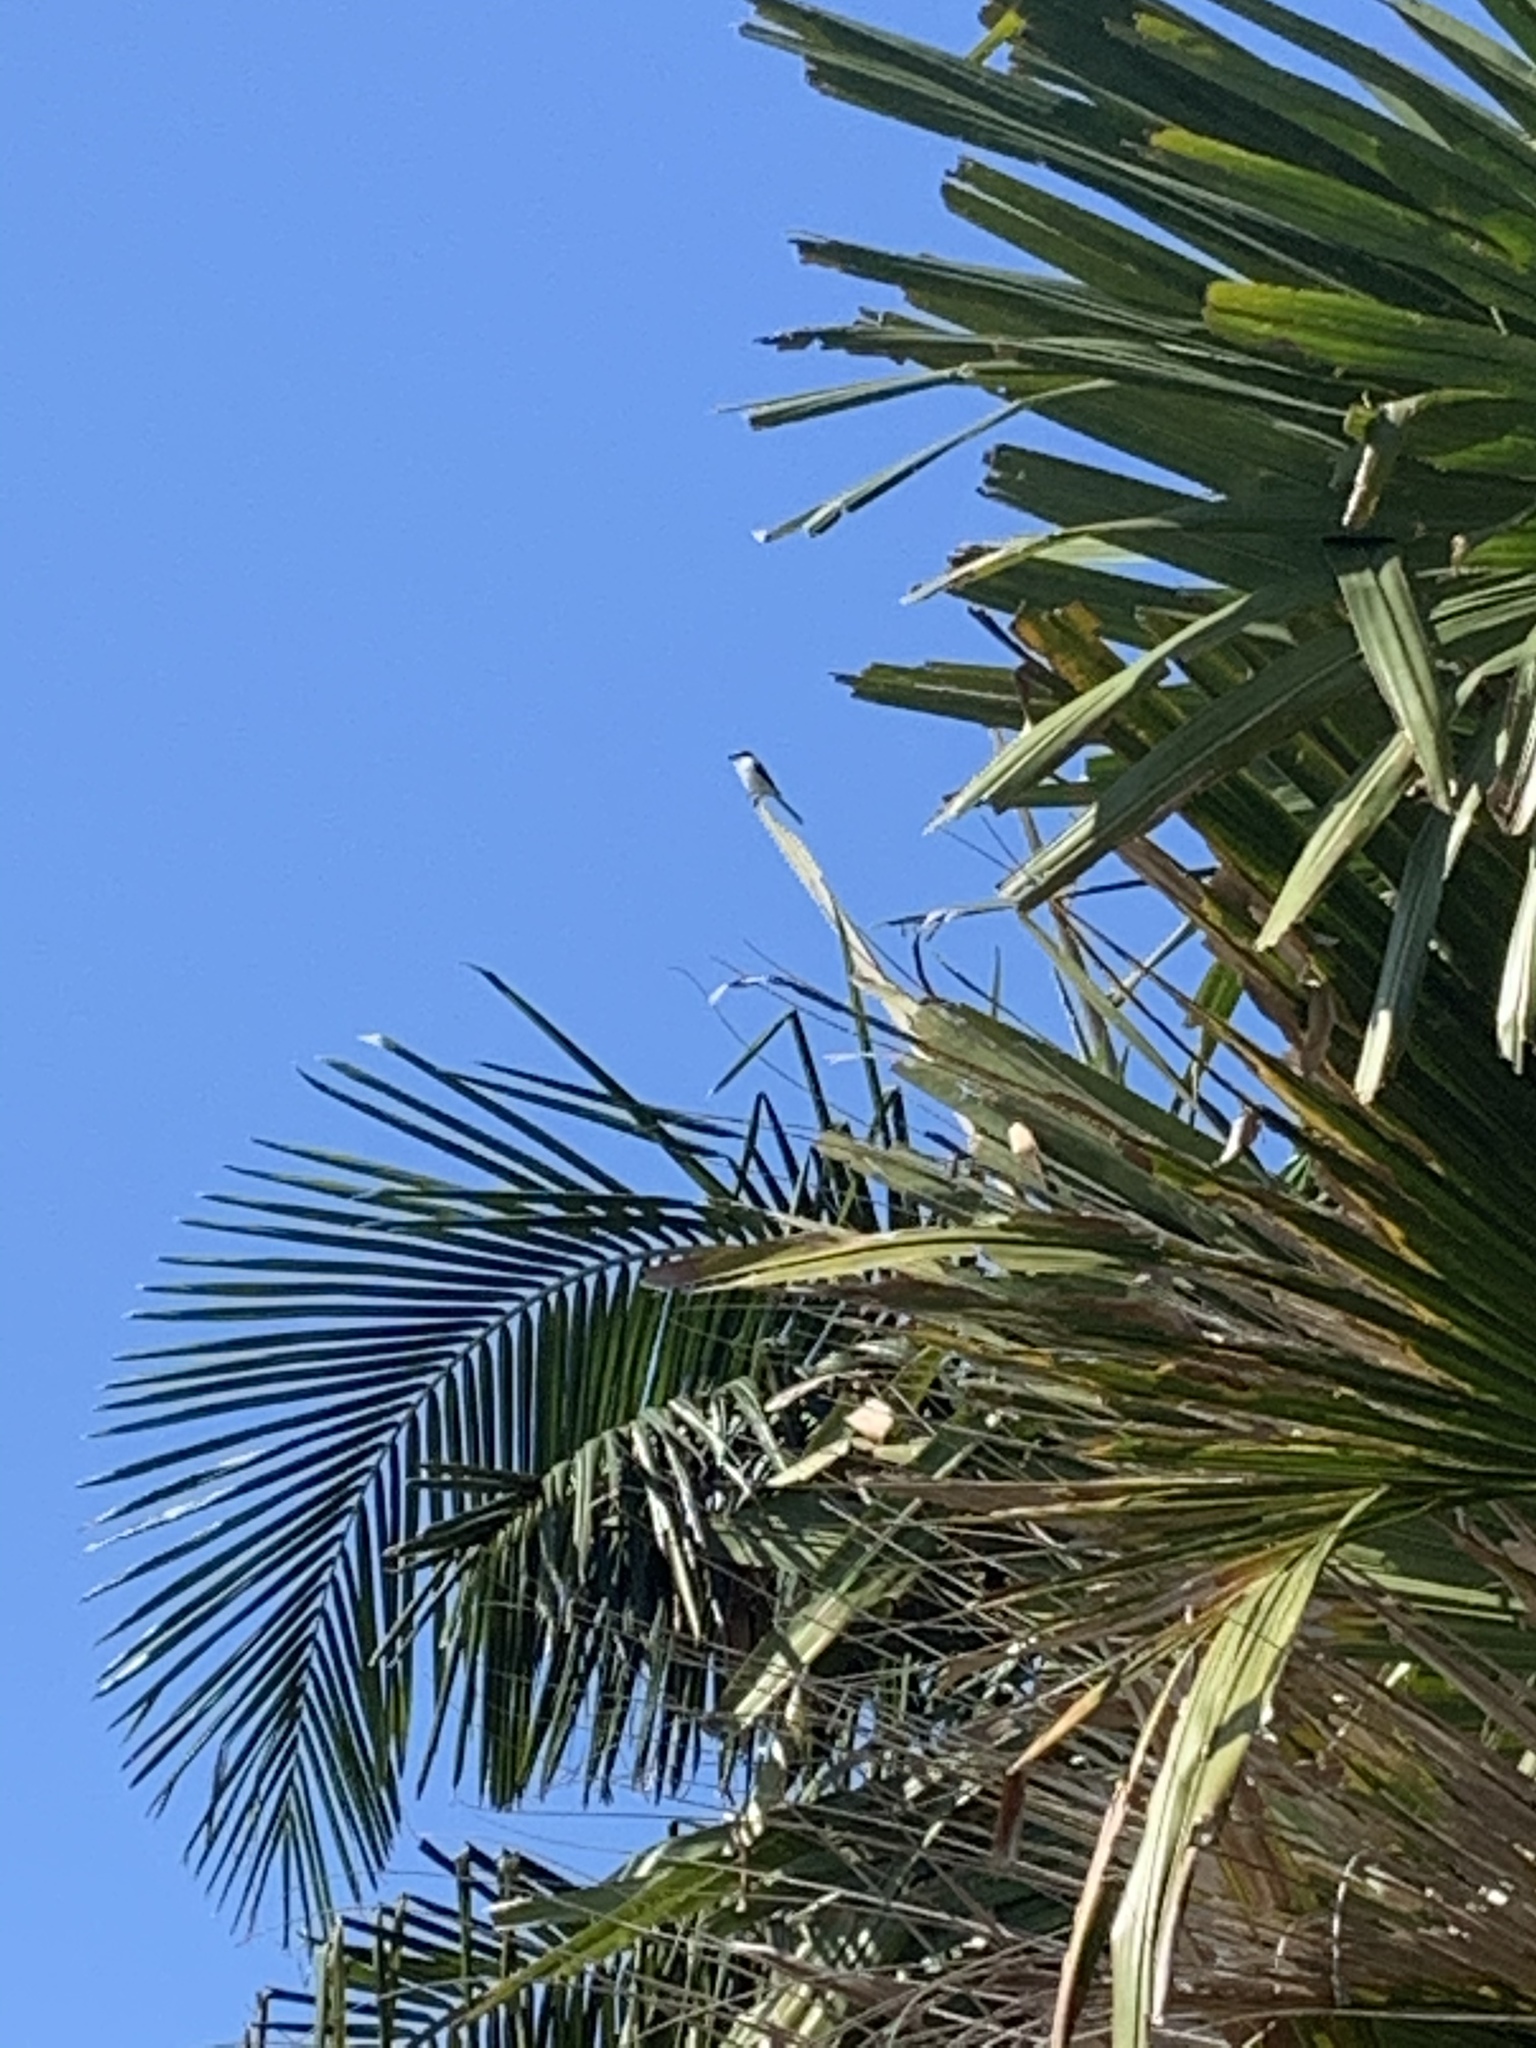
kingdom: Animalia
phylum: Chordata
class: Aves
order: Passeriformes
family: Laniidae
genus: Lanius
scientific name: Lanius ludovicianus
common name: Loggerhead shrike
